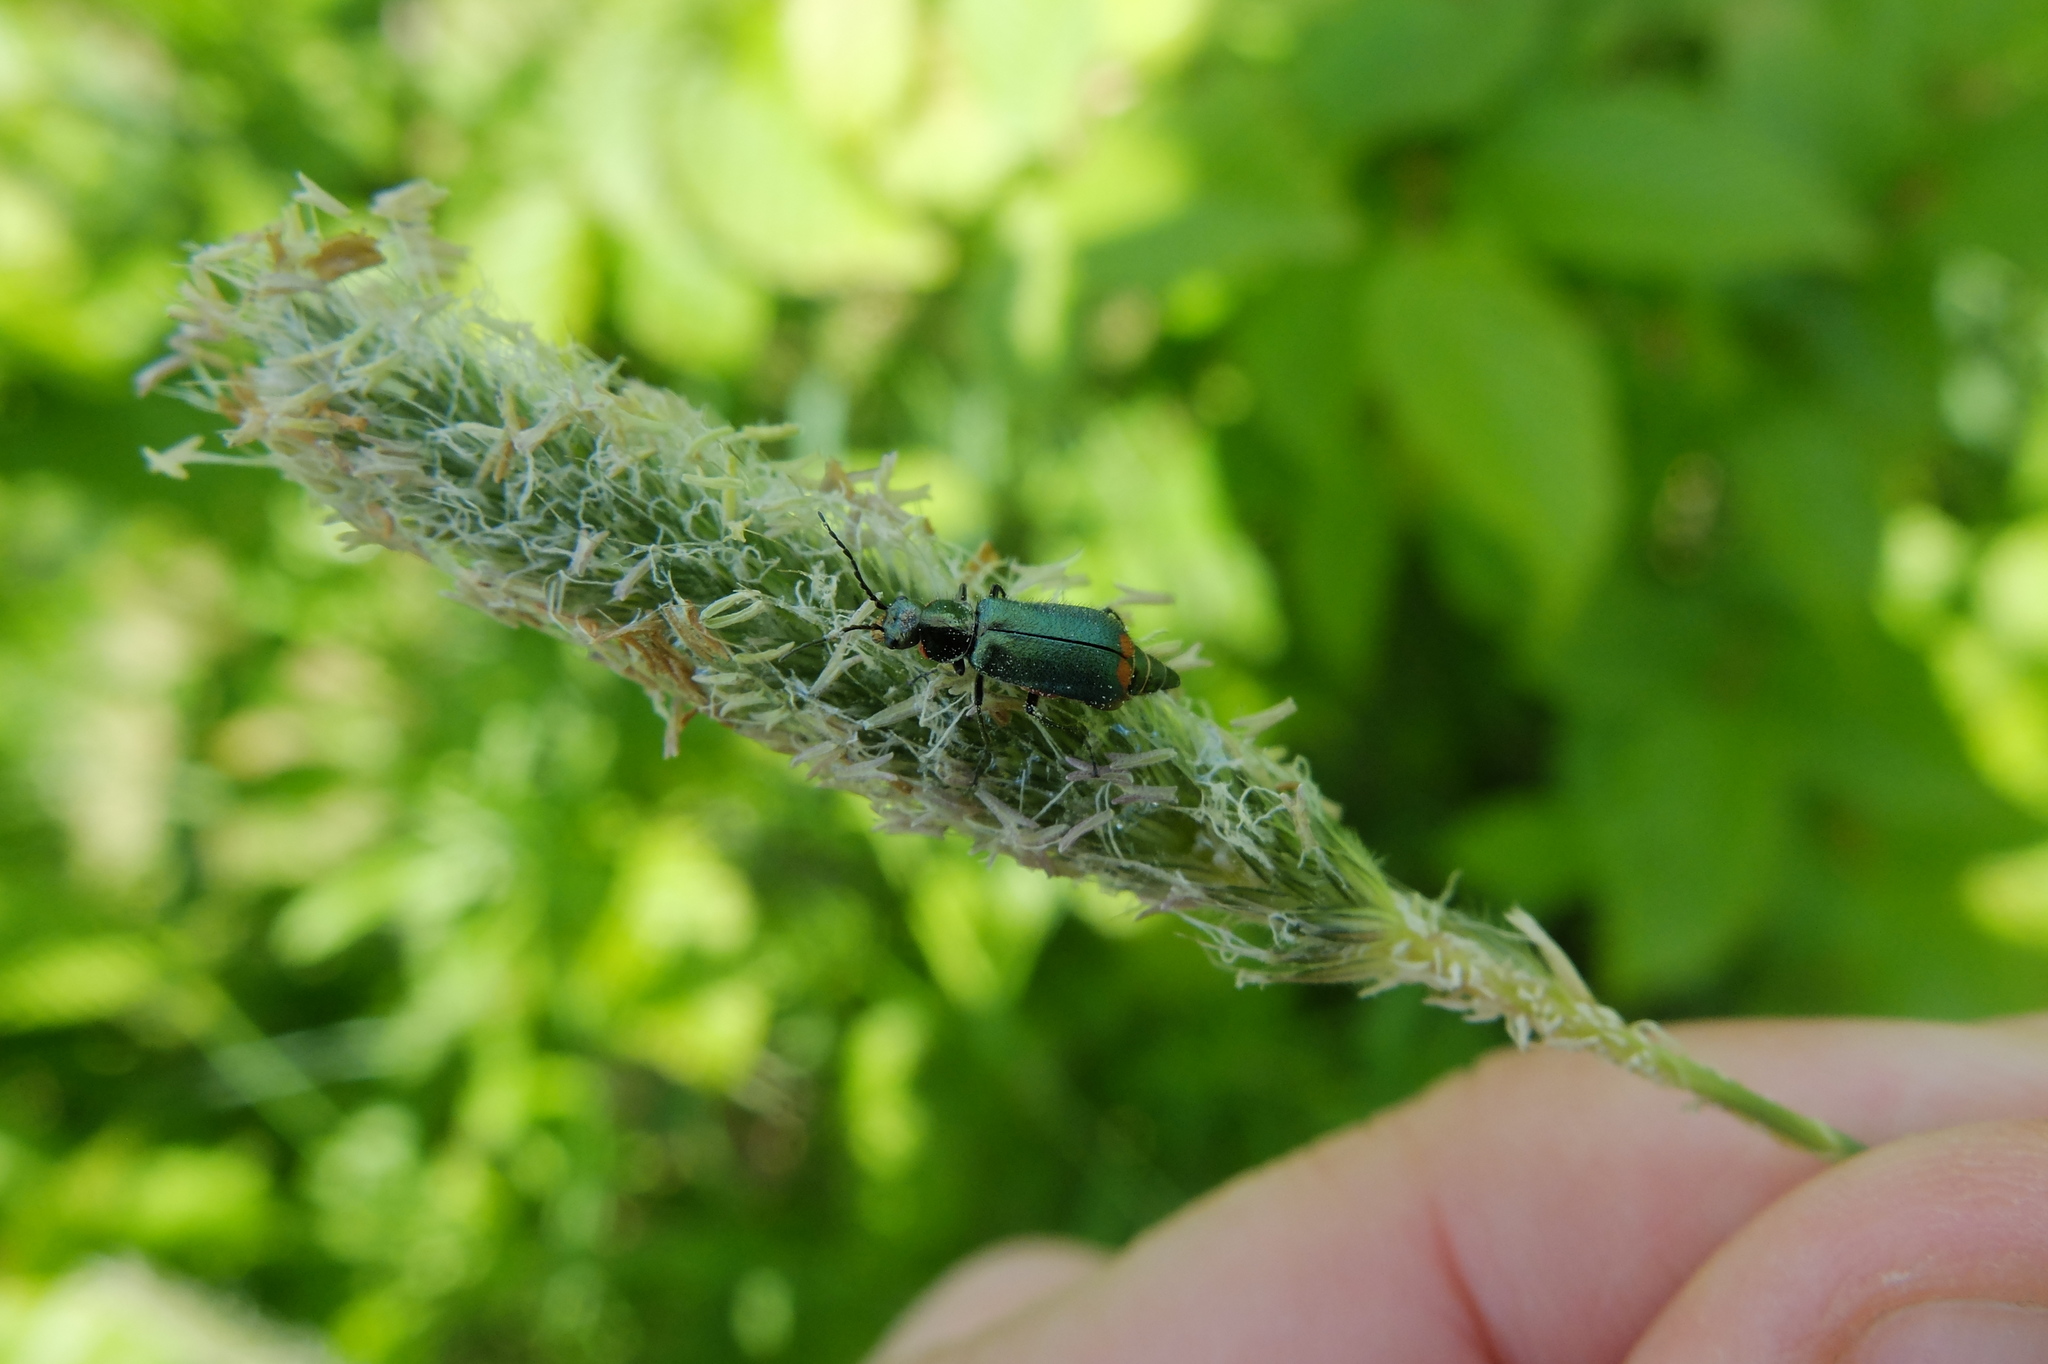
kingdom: Animalia
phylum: Arthropoda
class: Insecta
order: Coleoptera
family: Melyridae
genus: Malachius
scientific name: Malachius bipustulatus
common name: Malachite beetle
